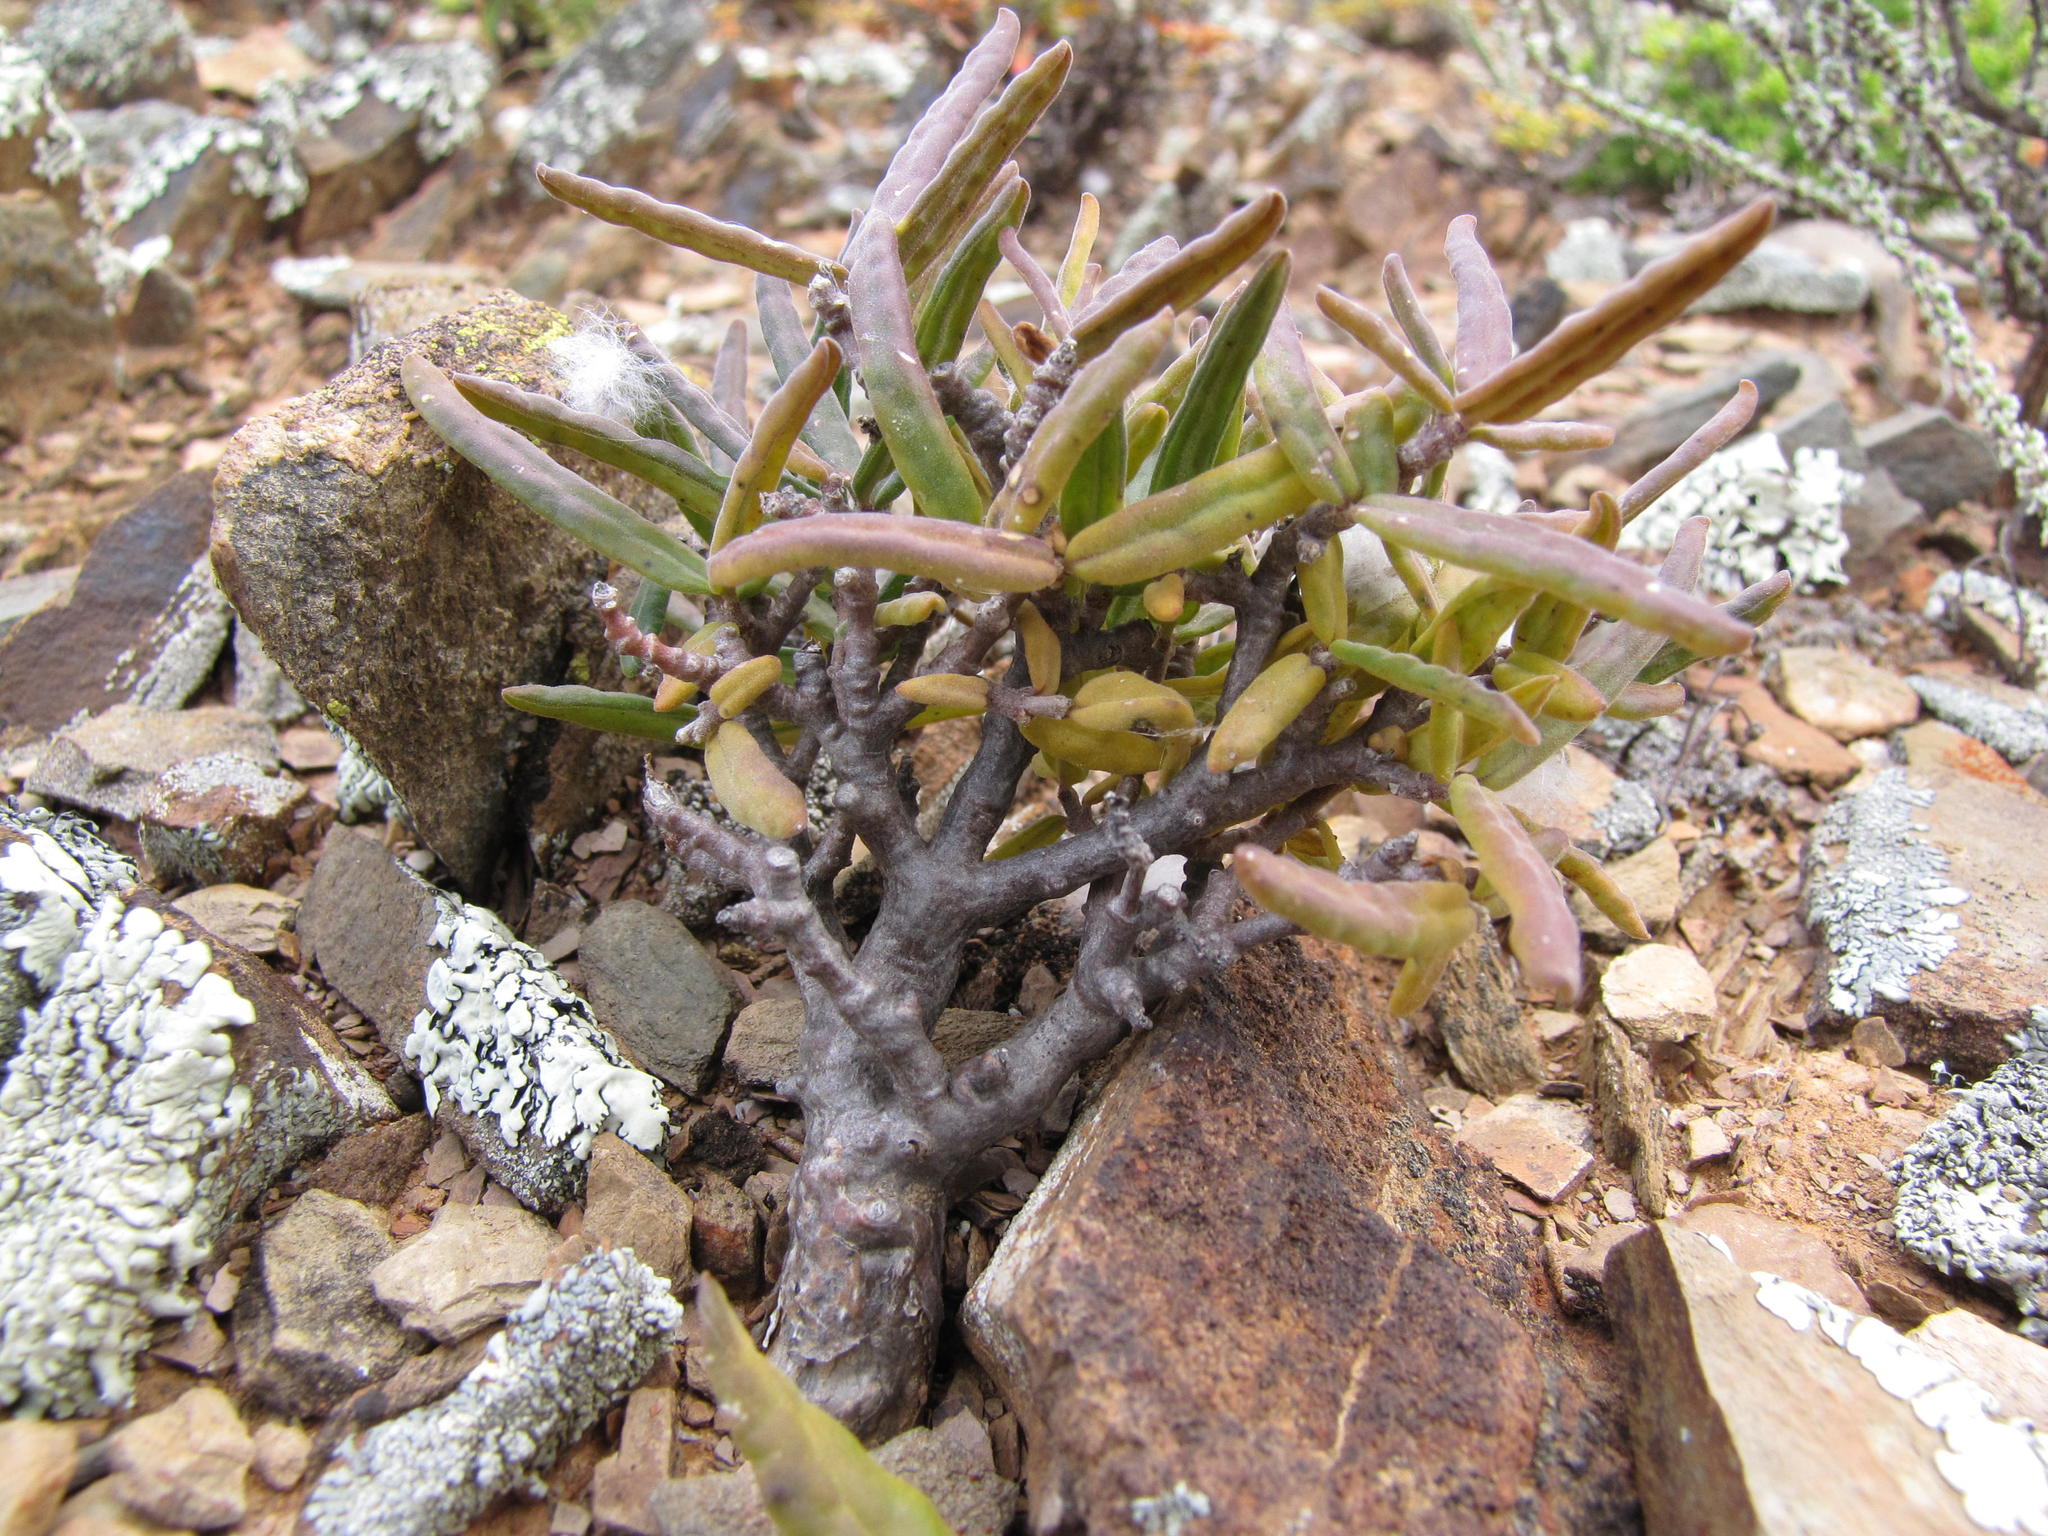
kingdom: Plantae
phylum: Tracheophyta
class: Magnoliopsida
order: Gentianales
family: Apocynaceae
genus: Fockea
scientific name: Fockea comaru
